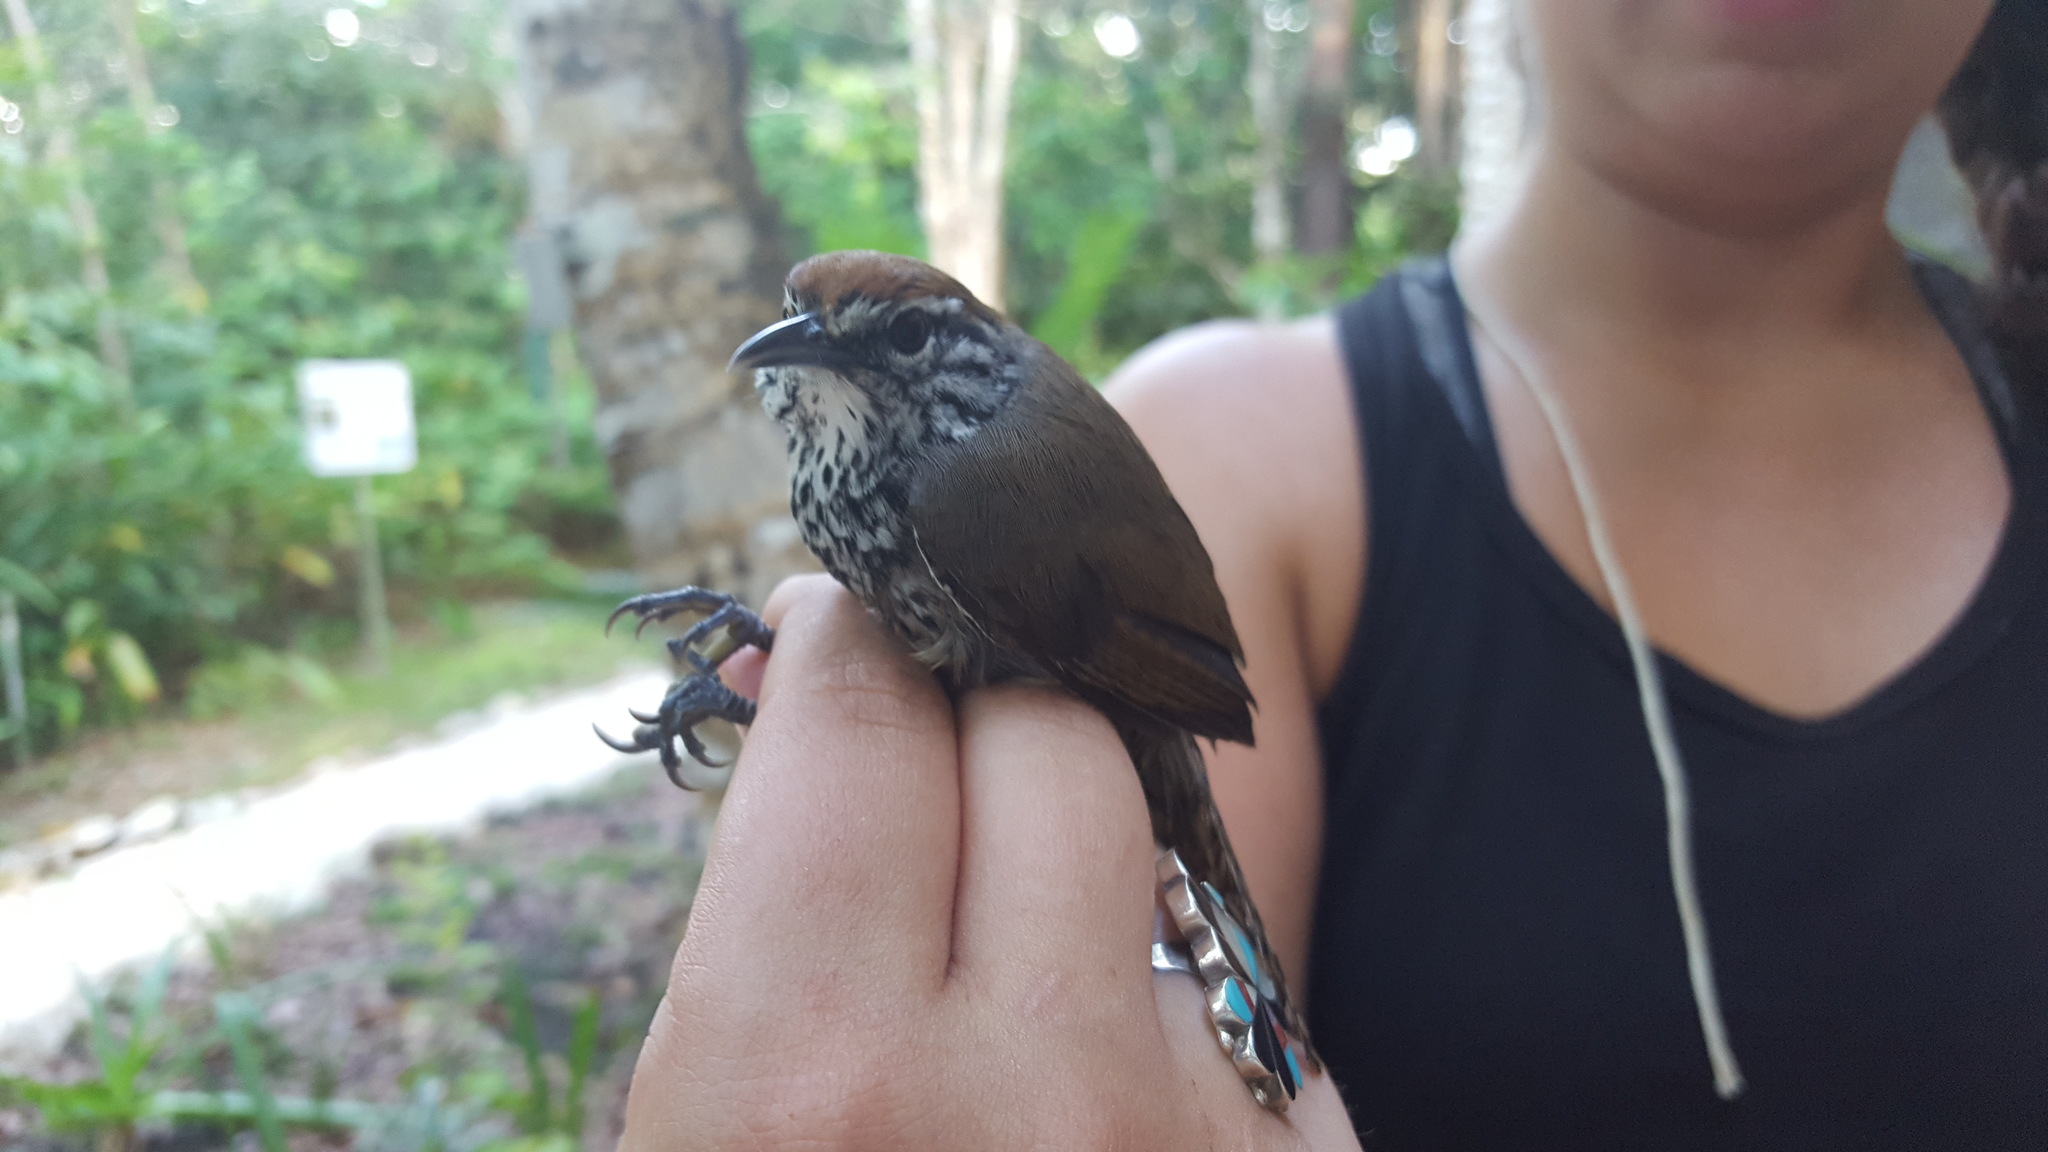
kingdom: Animalia
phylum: Chordata
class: Aves
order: Passeriformes
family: Troglodytidae
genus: Pheugopedius
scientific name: Pheugopedius maculipectus
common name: Spot-breasted wren
